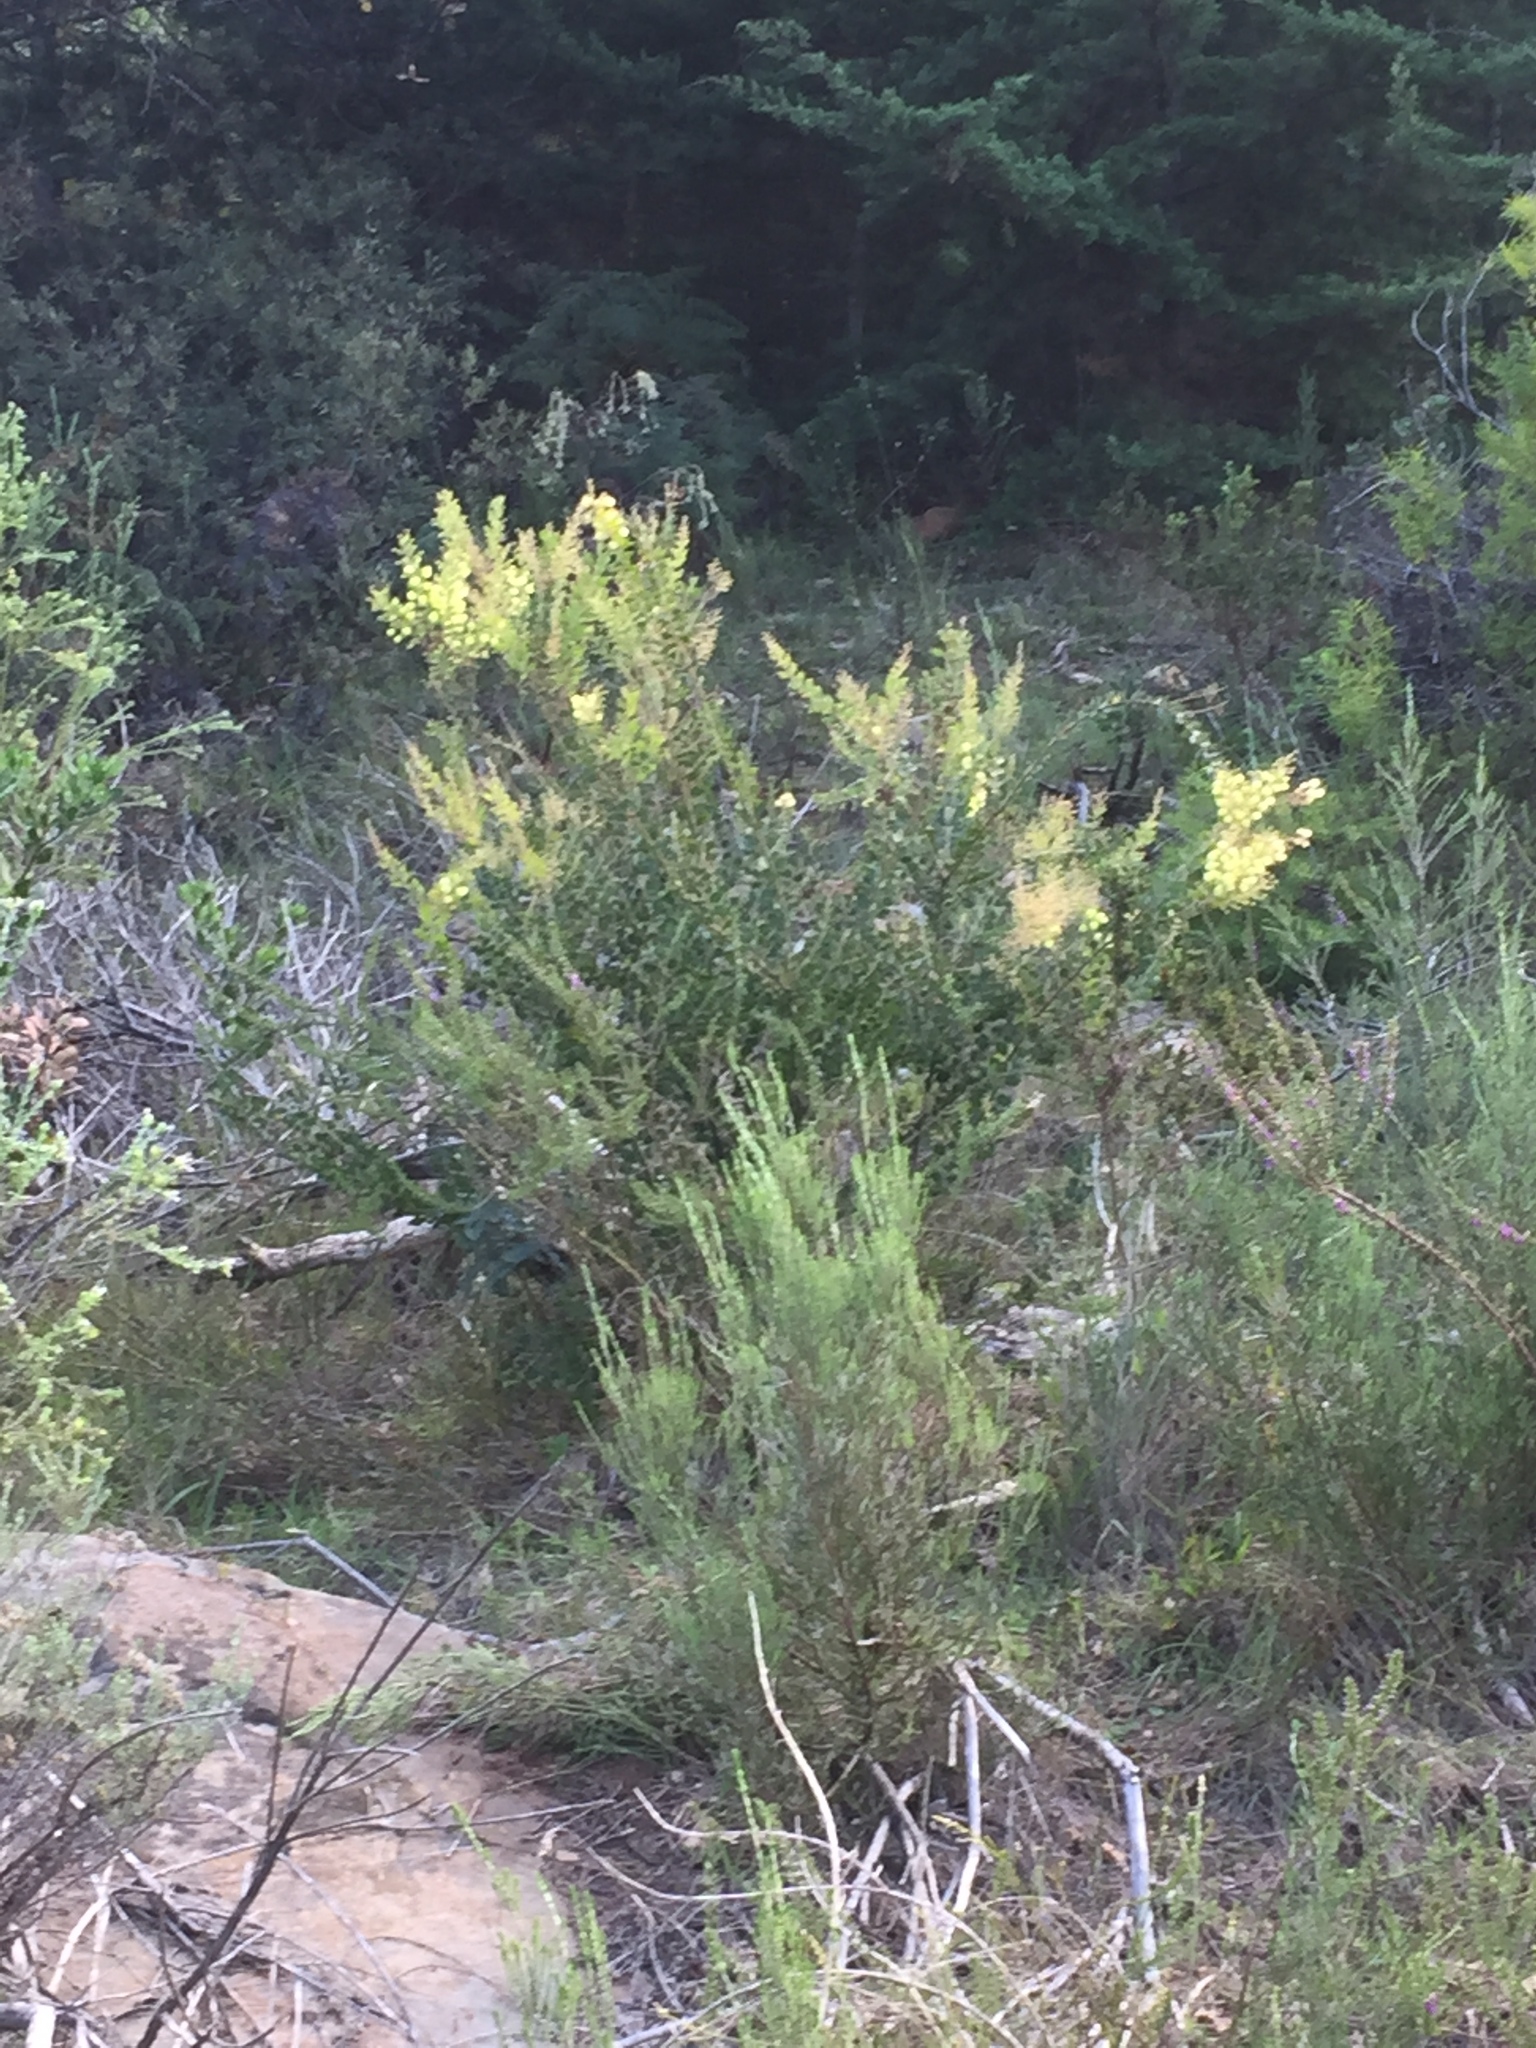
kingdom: Plantae
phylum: Tracheophyta
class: Magnoliopsida
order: Fabales
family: Fabaceae
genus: Acacia
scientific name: Acacia piligera
